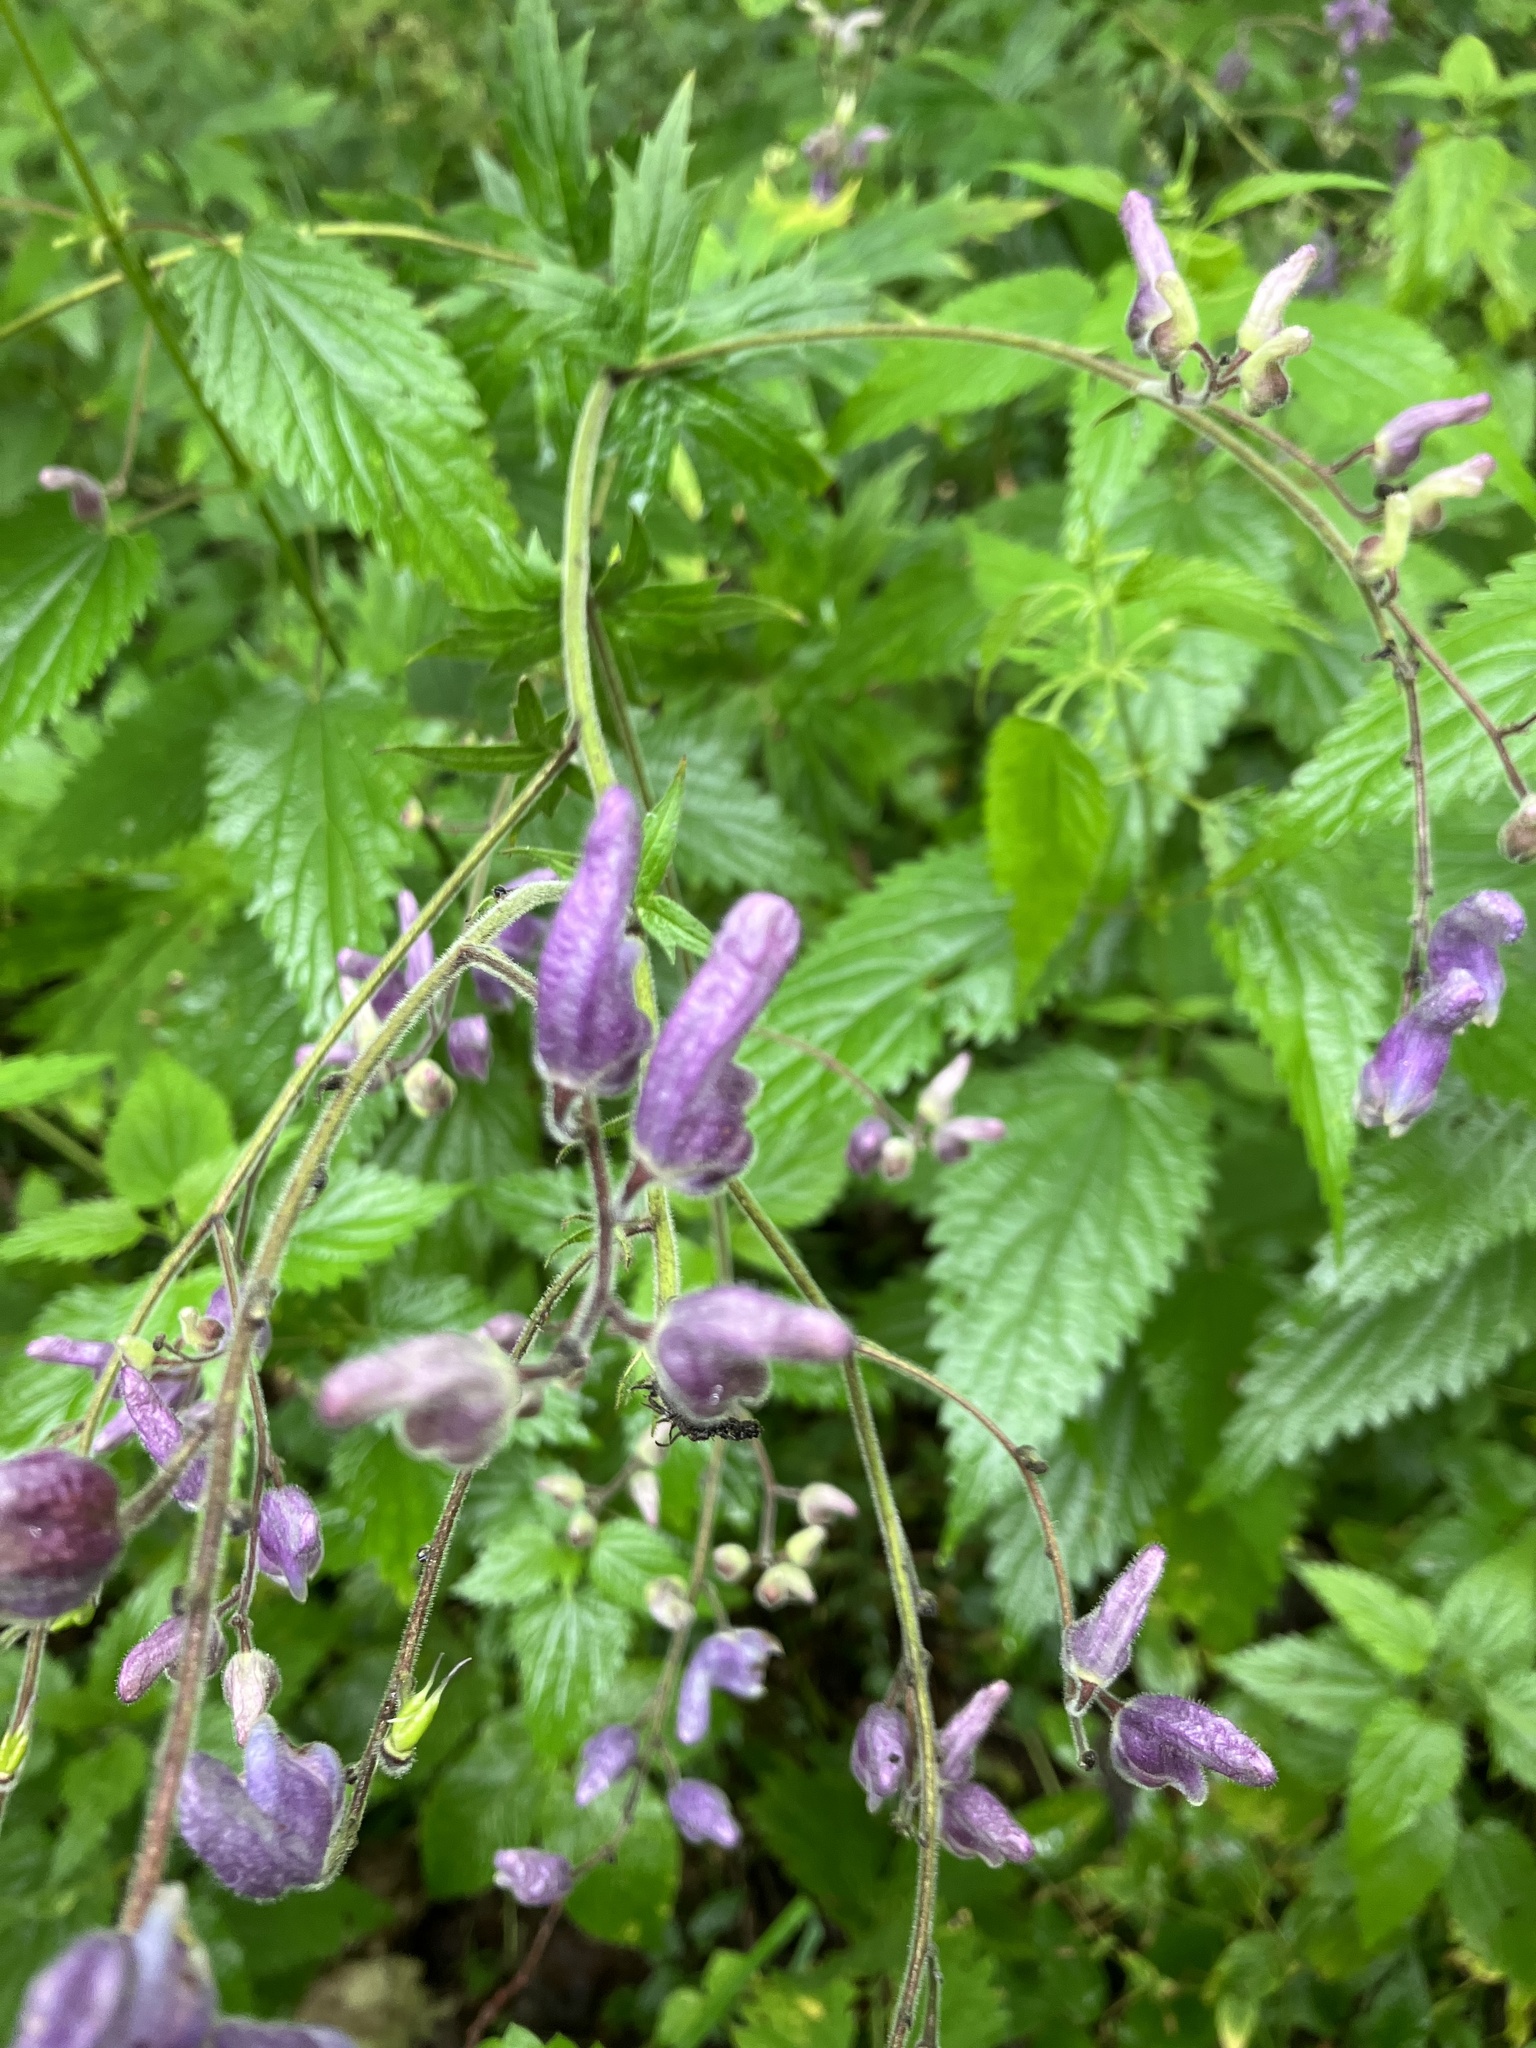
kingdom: Plantae
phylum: Tracheophyta
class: Magnoliopsida
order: Ranunculales
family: Ranunculaceae
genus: Aconitum
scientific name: Aconitum septentrionale
